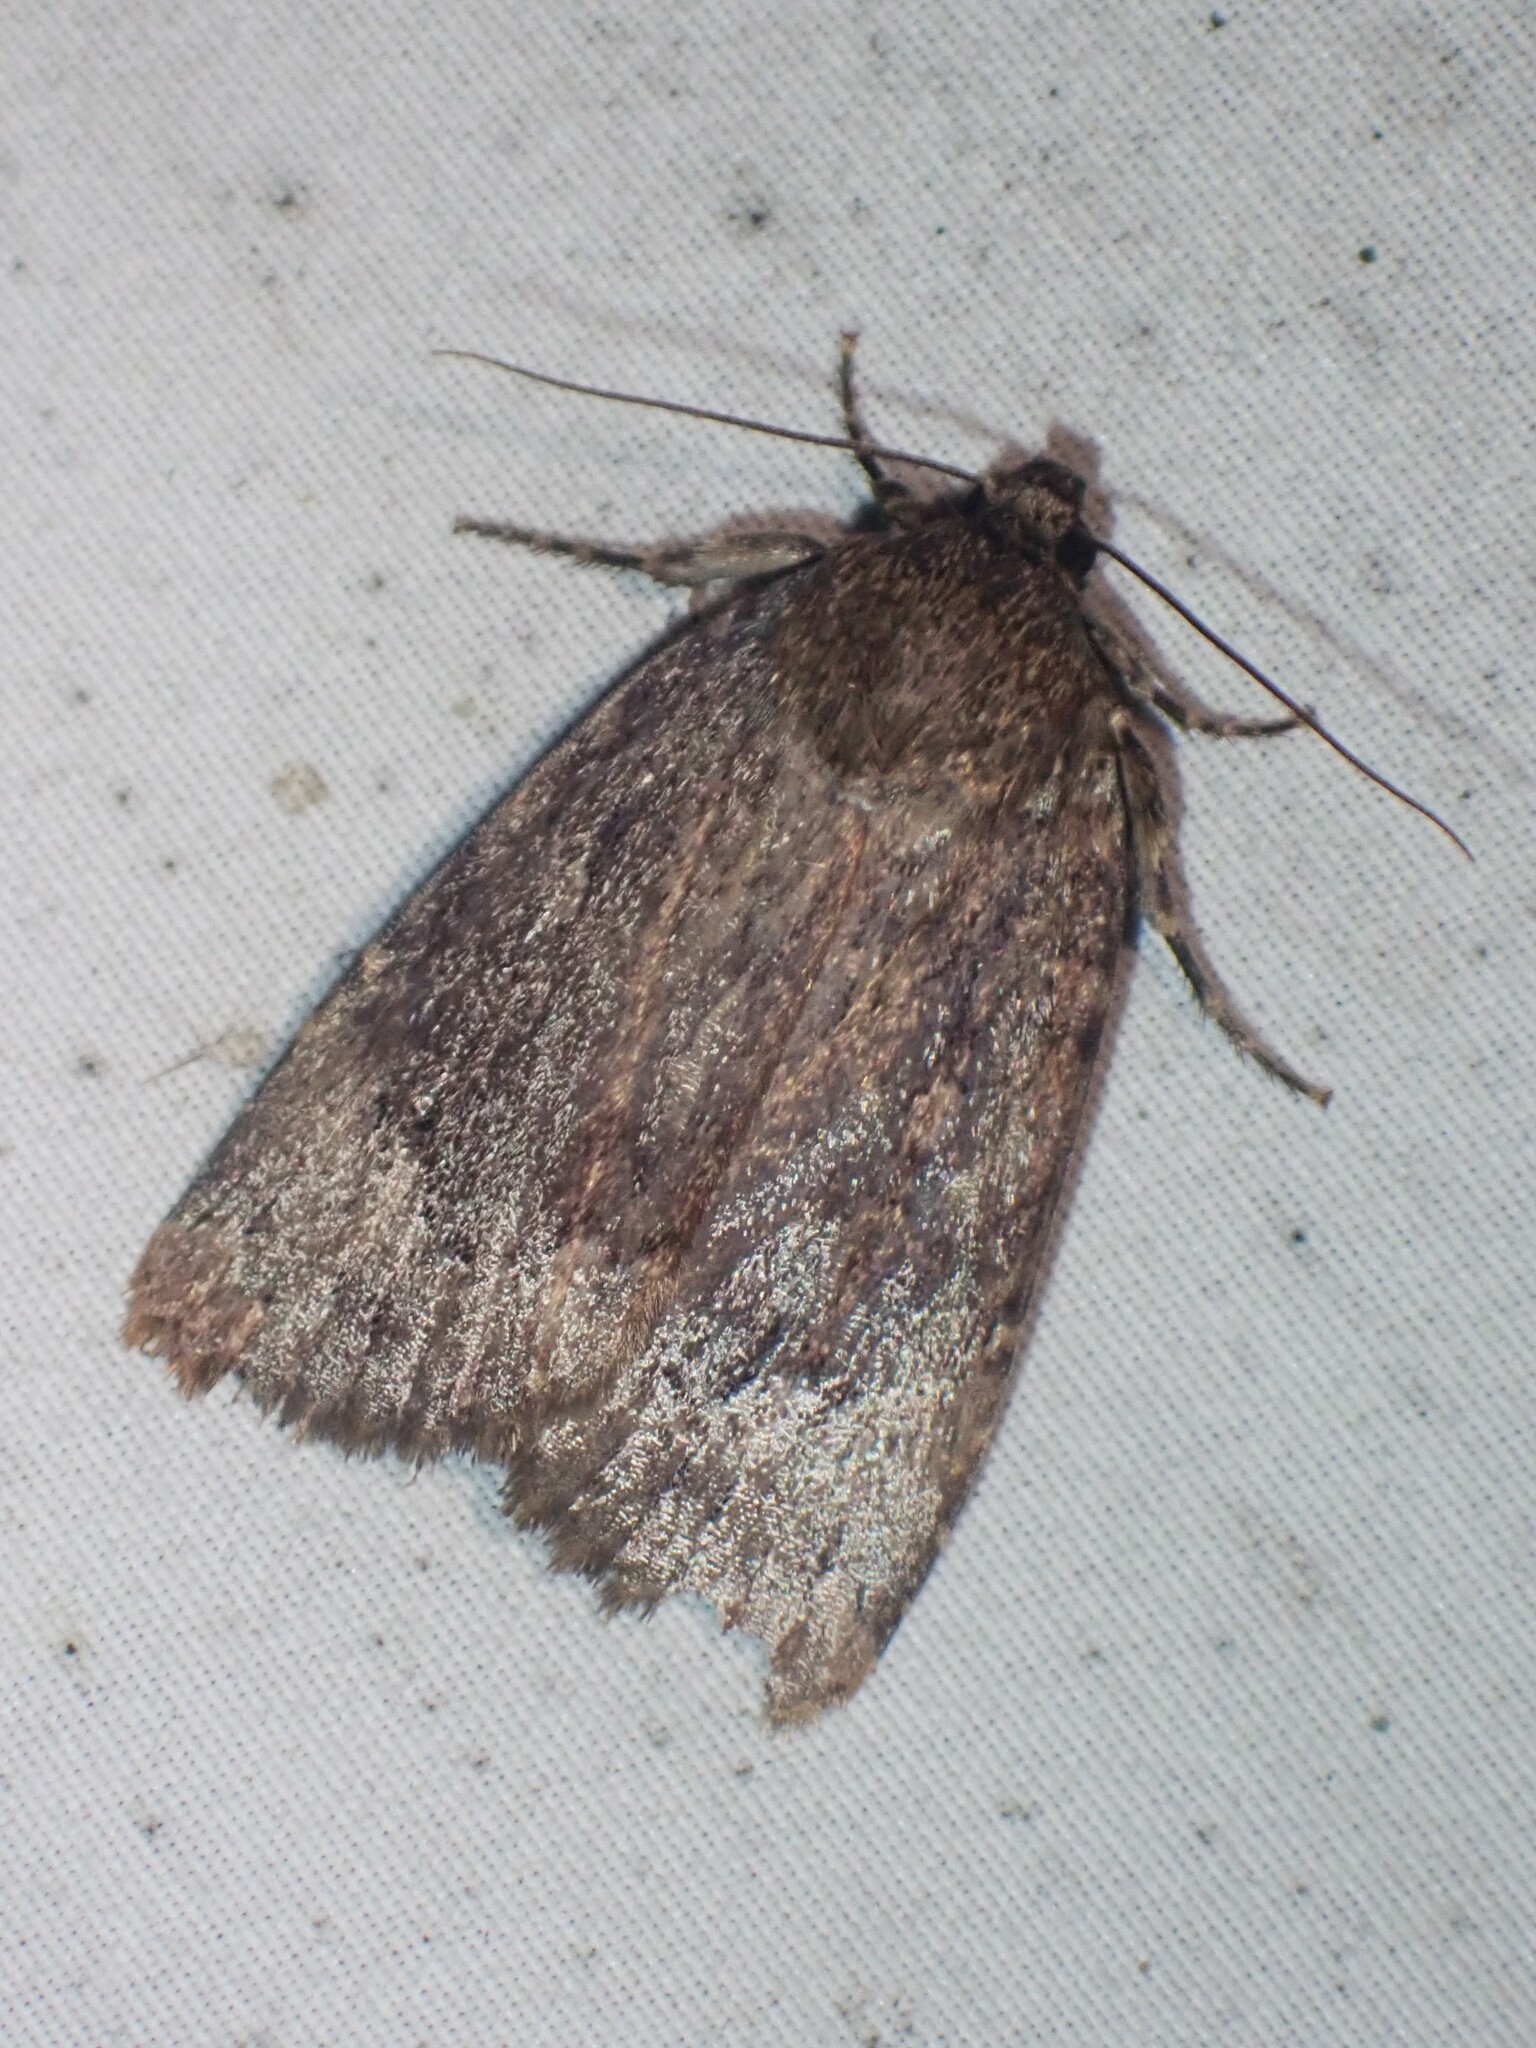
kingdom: Animalia
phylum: Arthropoda
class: Insecta
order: Lepidoptera
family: Noctuidae
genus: Amphipyra
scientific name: Amphipyra pyramidoides
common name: American copper underwing
